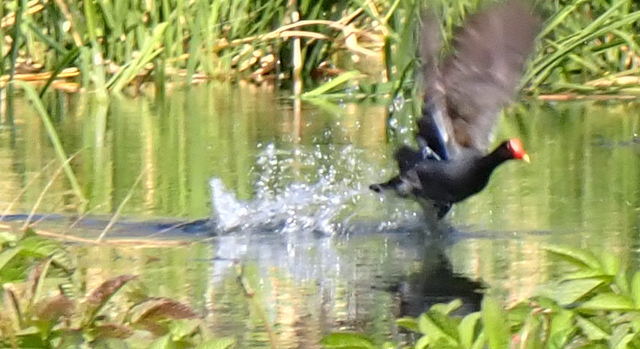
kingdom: Animalia
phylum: Chordata
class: Aves
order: Gruiformes
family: Rallidae
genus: Gallinula
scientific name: Gallinula chloropus
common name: Common moorhen
